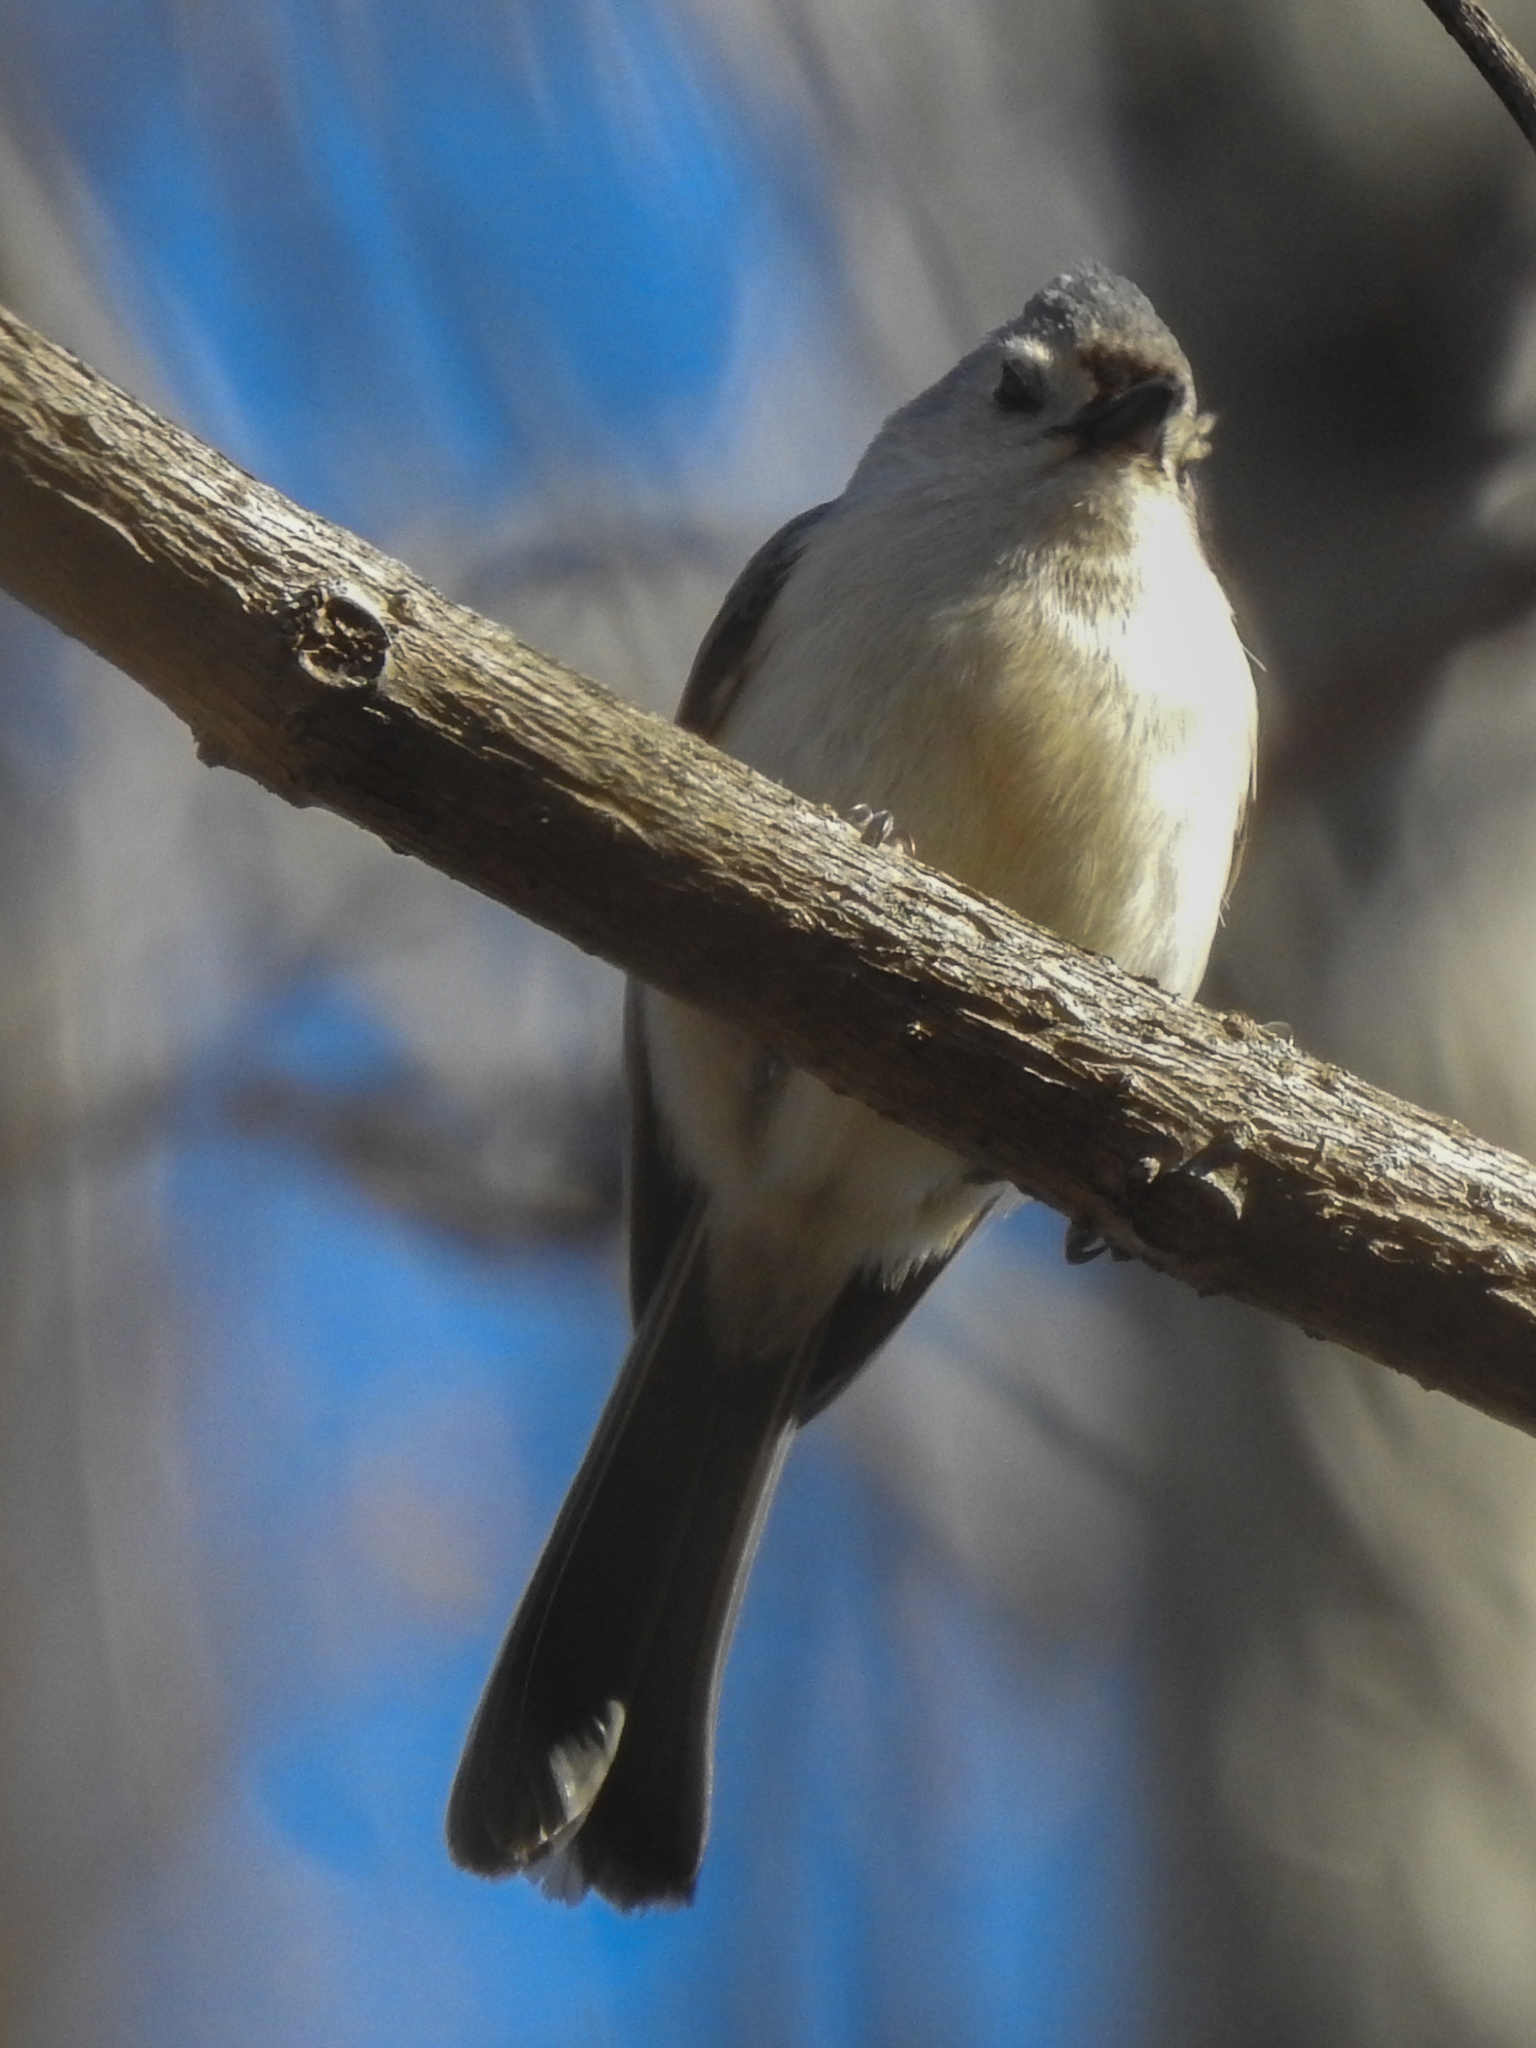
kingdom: Animalia
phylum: Chordata
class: Aves
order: Passeriformes
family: Paridae
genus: Baeolophus
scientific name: Baeolophus bicolor
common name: Tufted titmouse
